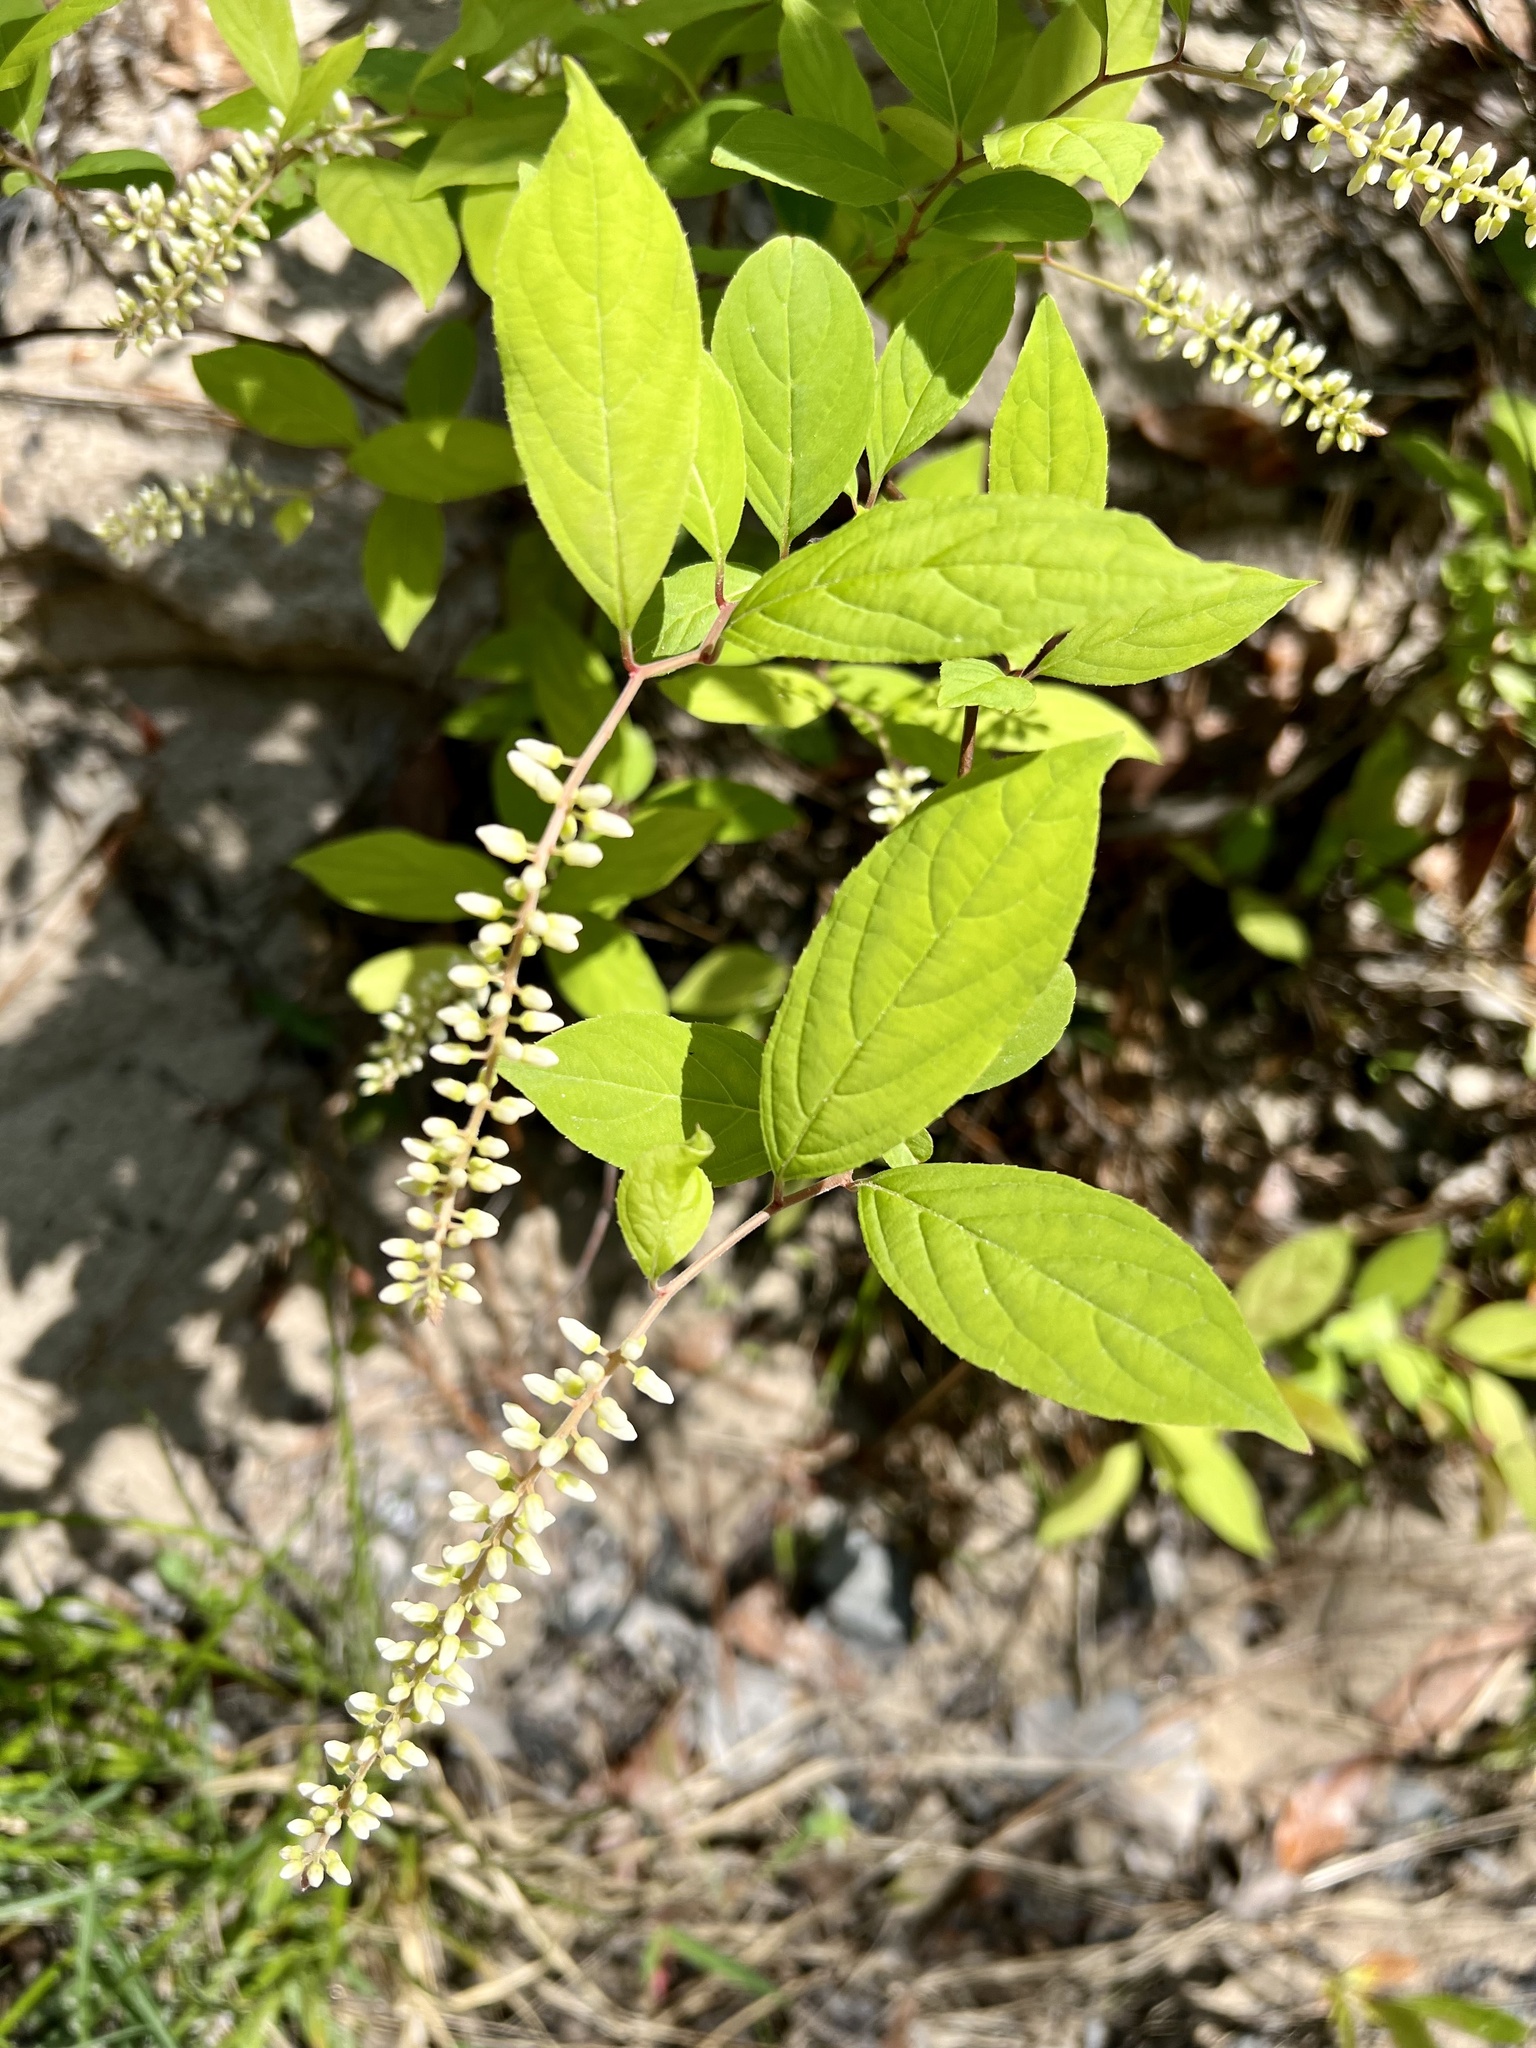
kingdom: Plantae
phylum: Tracheophyta
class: Magnoliopsida
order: Saxifragales
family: Iteaceae
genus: Itea
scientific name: Itea virginica
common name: Sweetspire
